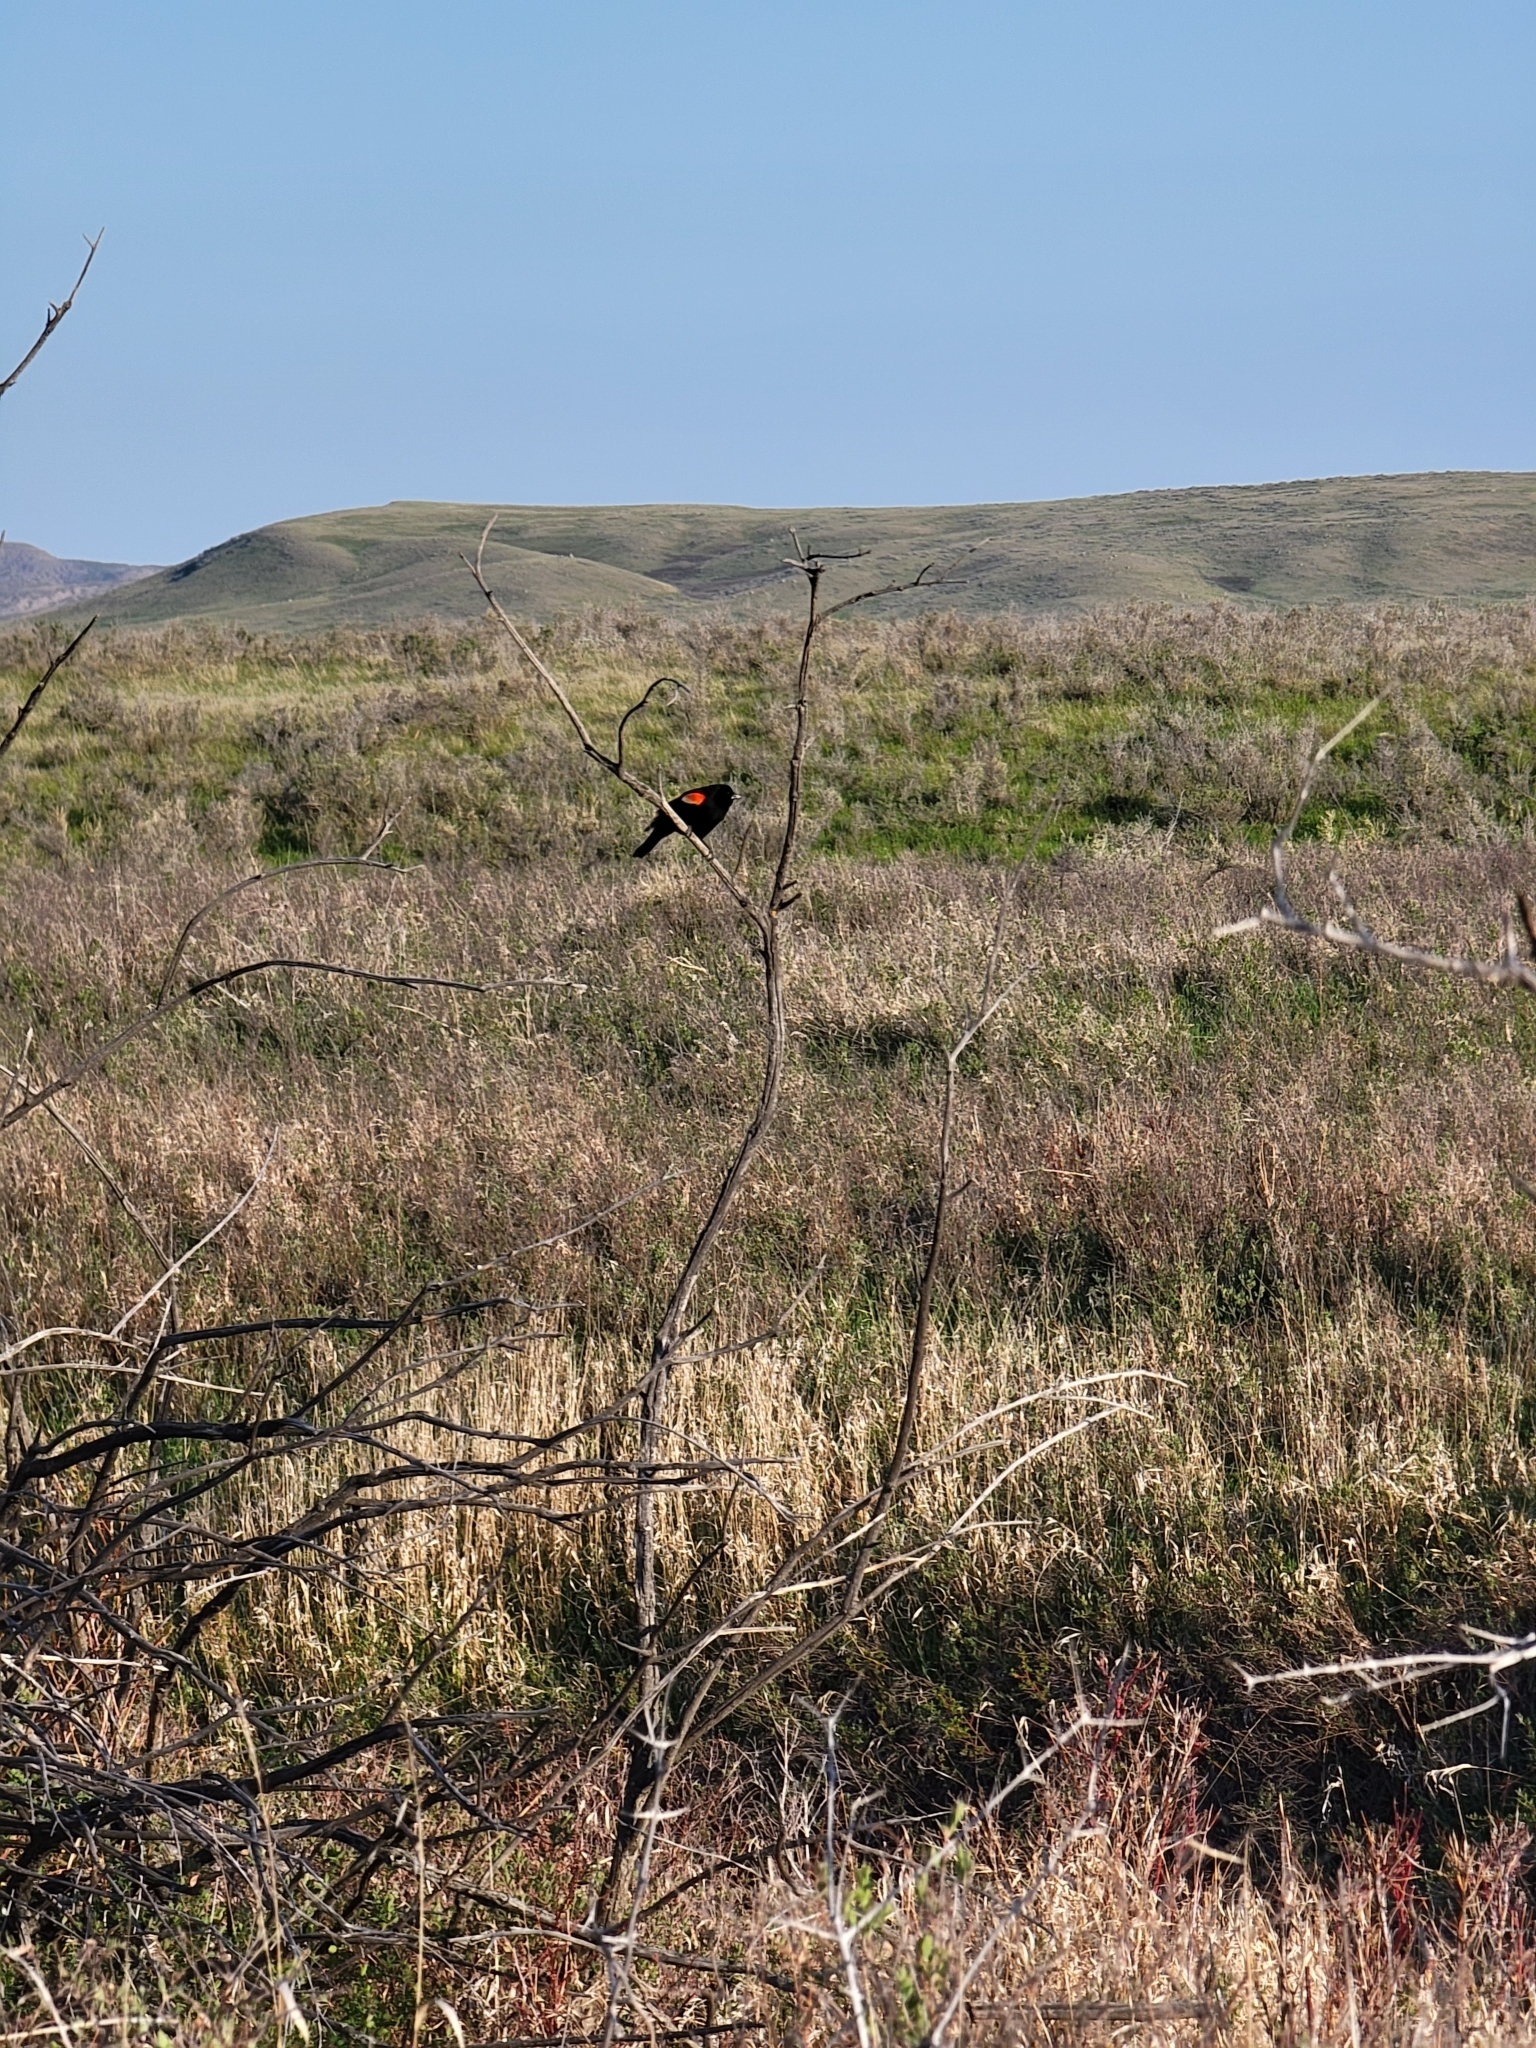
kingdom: Animalia
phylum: Chordata
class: Aves
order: Passeriformes
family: Icteridae
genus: Agelaius
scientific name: Agelaius phoeniceus
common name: Red-winged blackbird
